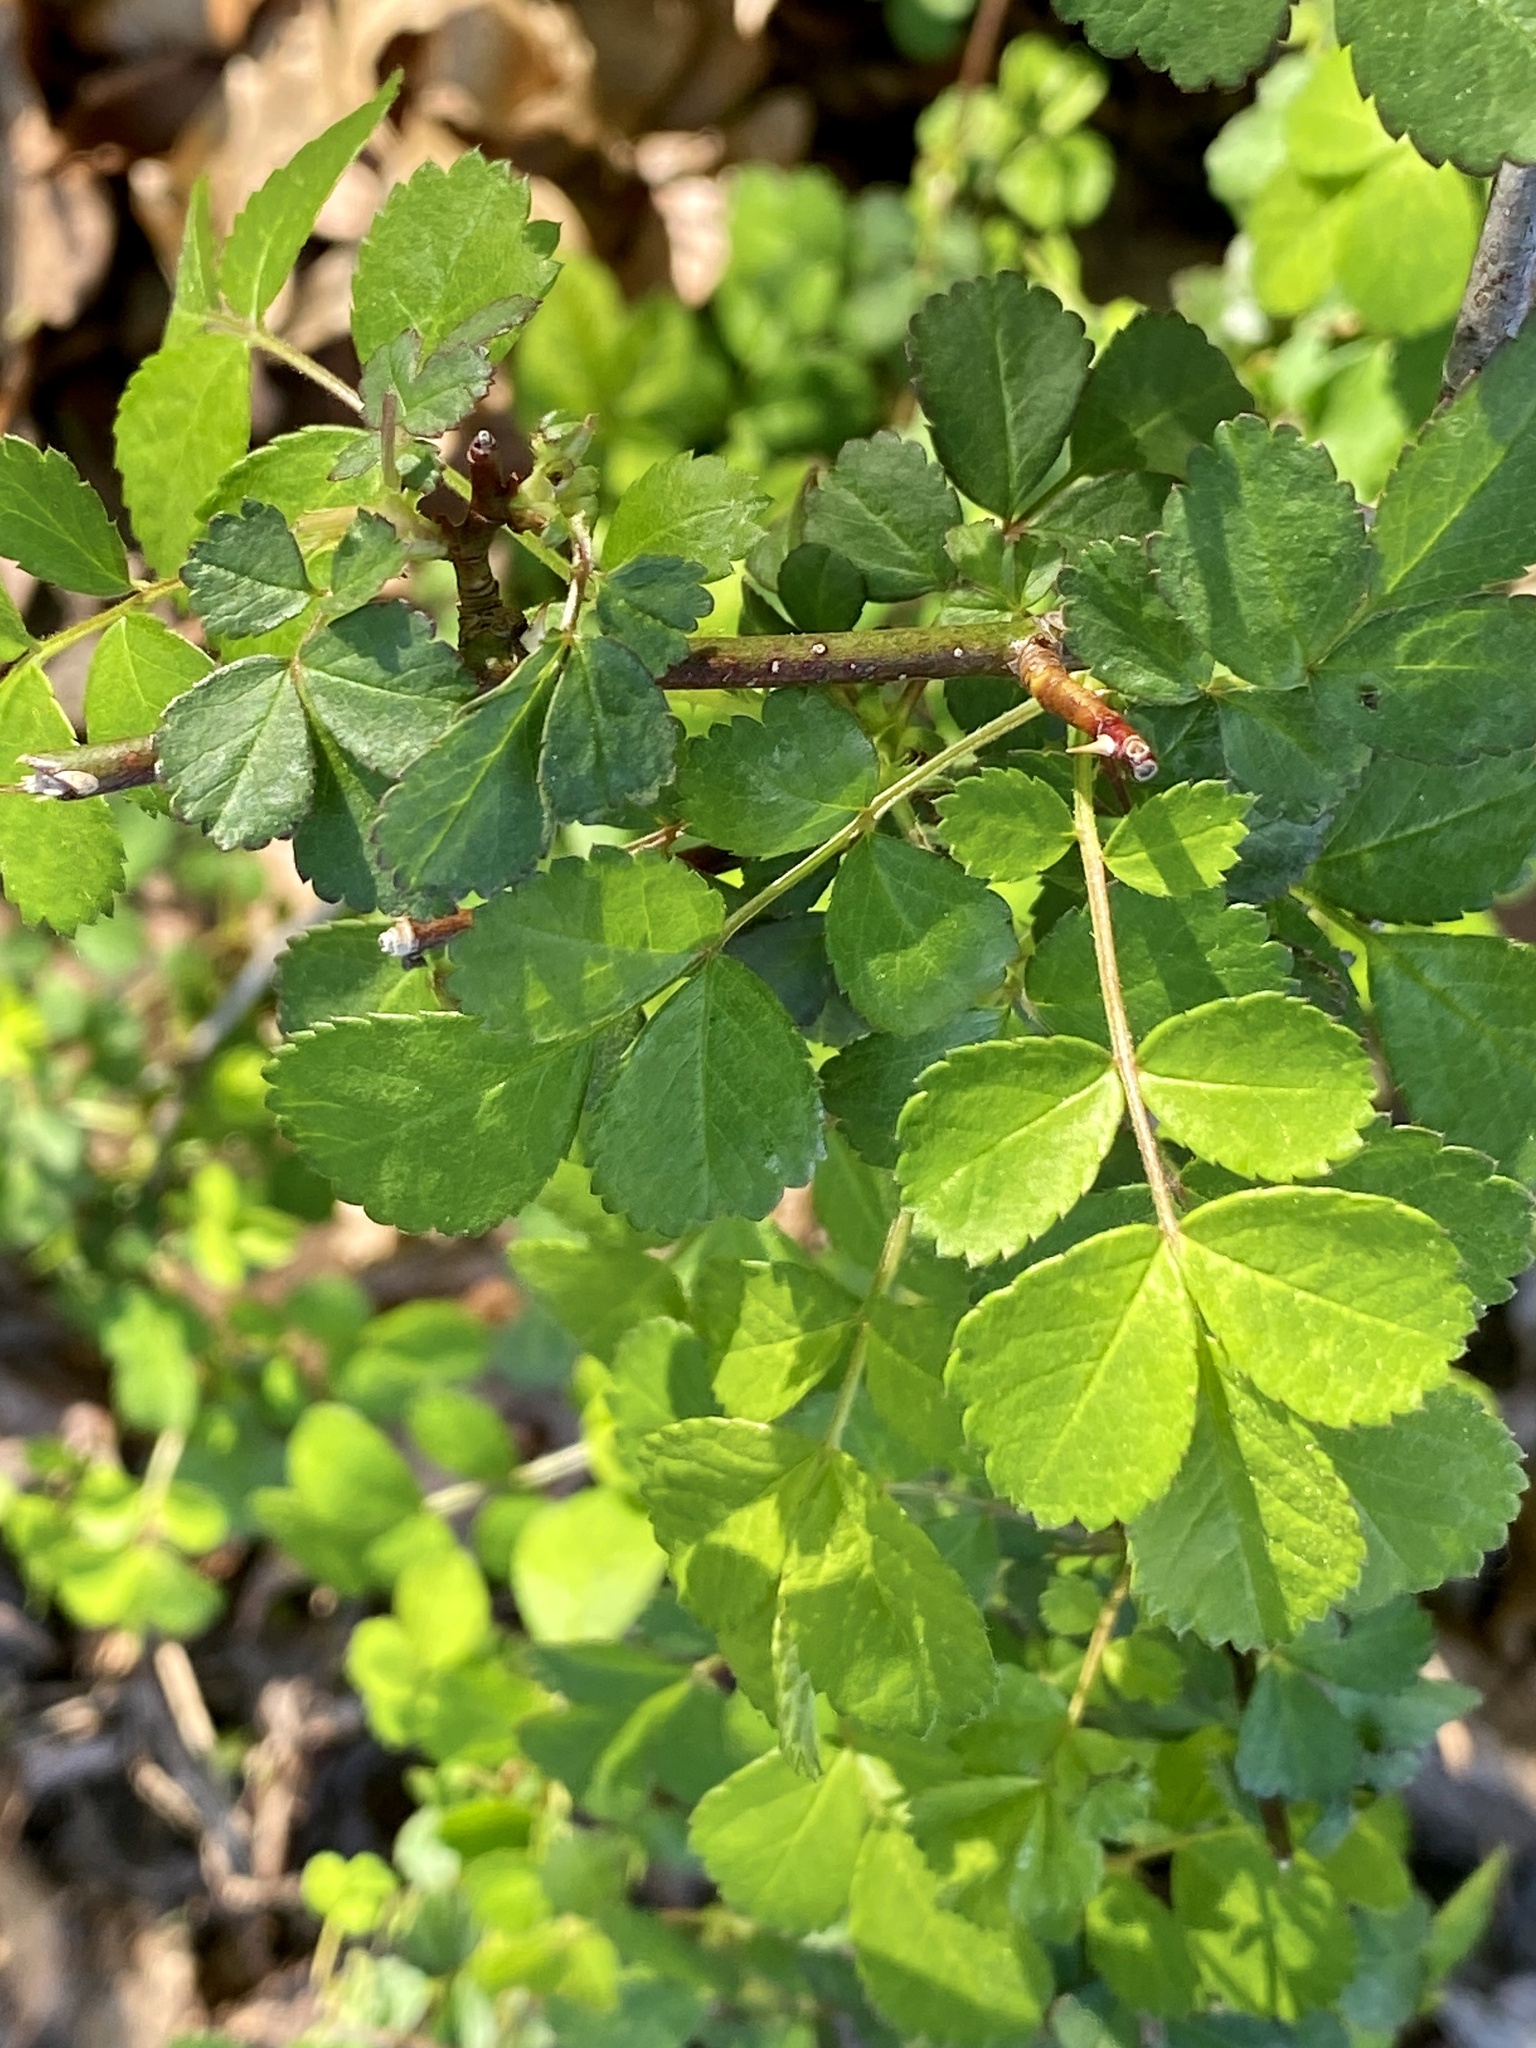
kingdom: Plantae
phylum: Tracheophyta
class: Magnoliopsida
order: Rosales
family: Rosaceae
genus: Rosa
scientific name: Rosa multiflora
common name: Multiflora rose
